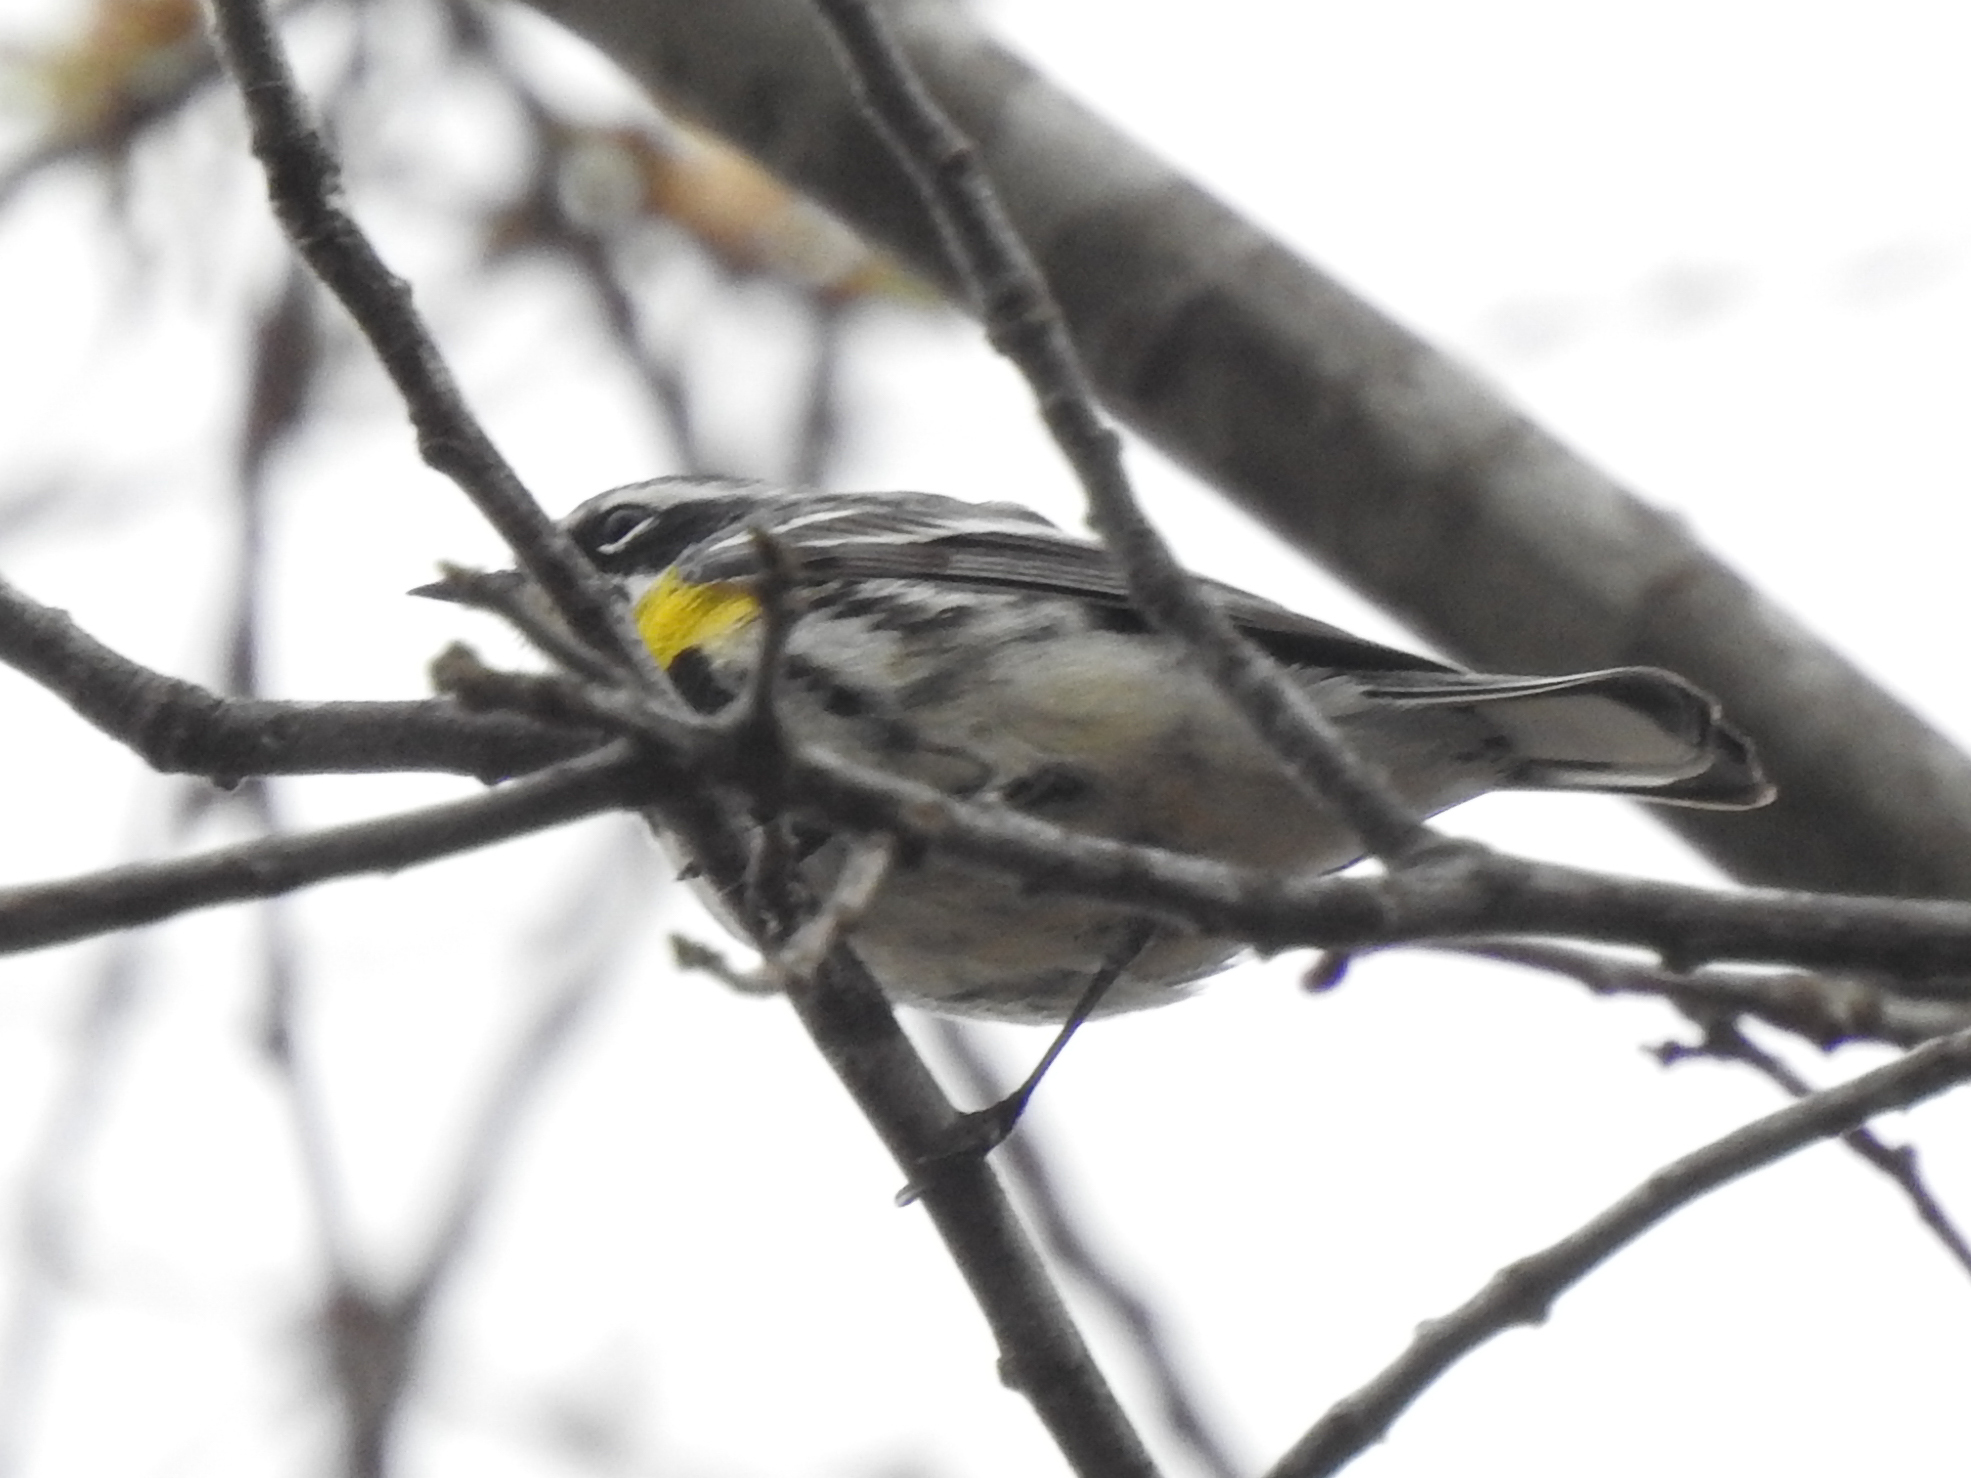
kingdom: Animalia
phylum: Chordata
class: Aves
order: Passeriformes
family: Parulidae
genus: Setophaga
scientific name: Setophaga coronata
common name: Myrtle warbler
